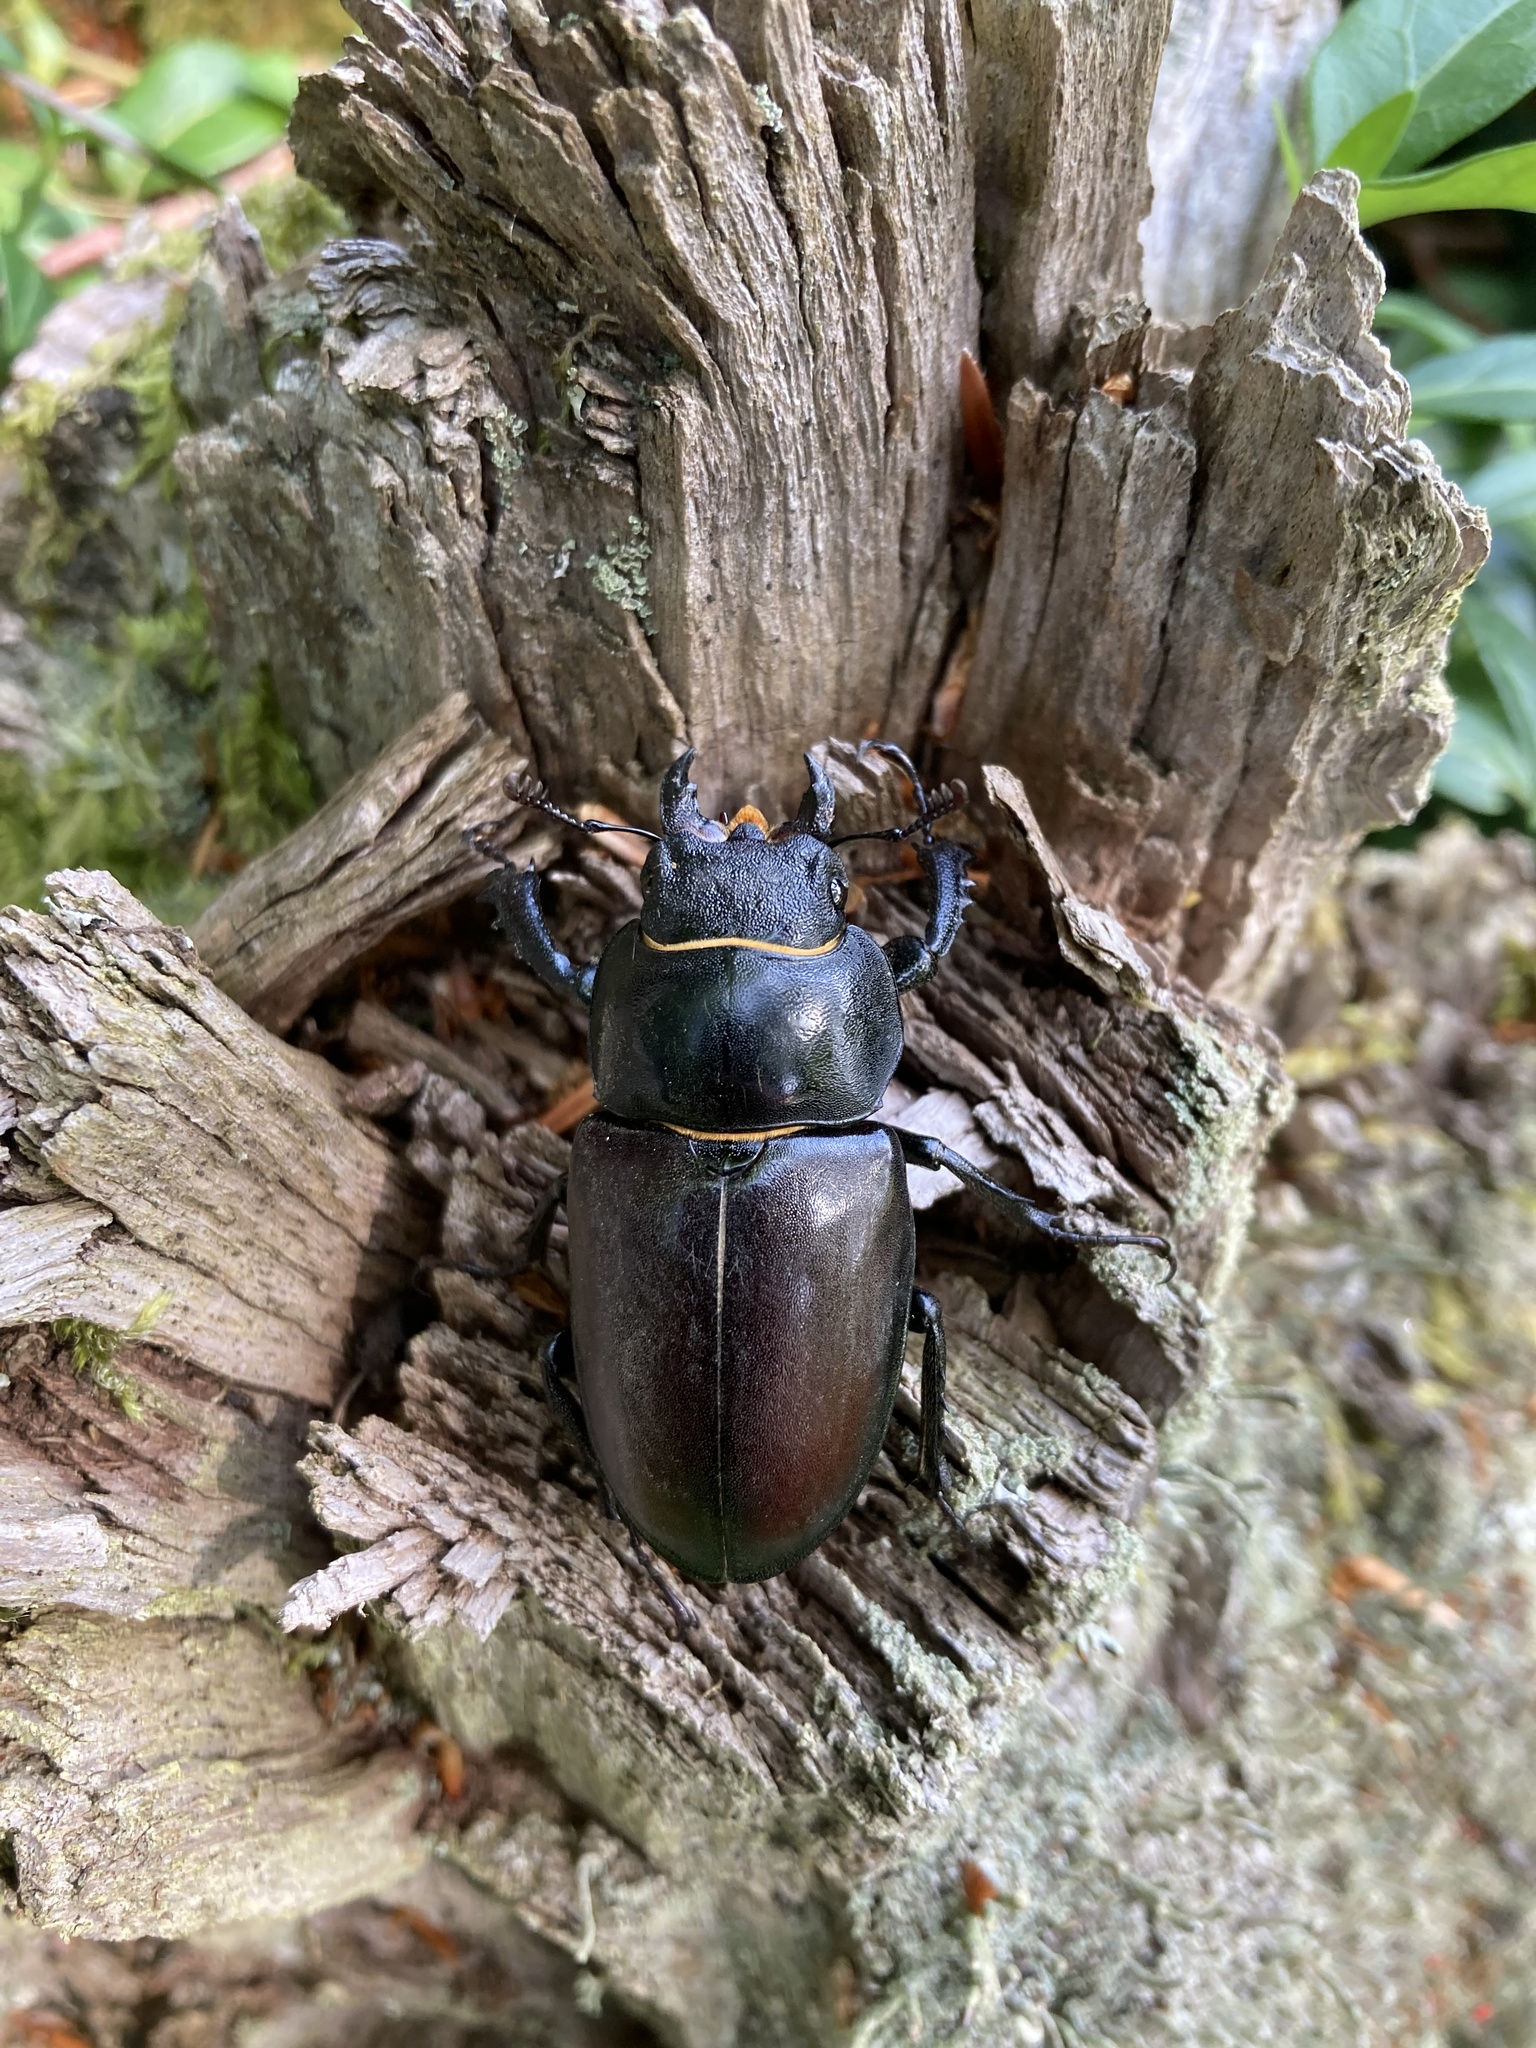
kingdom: Animalia
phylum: Arthropoda
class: Insecta
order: Coleoptera
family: Lucanidae
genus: Lucanus
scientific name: Lucanus cervus
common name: Stag beetle
